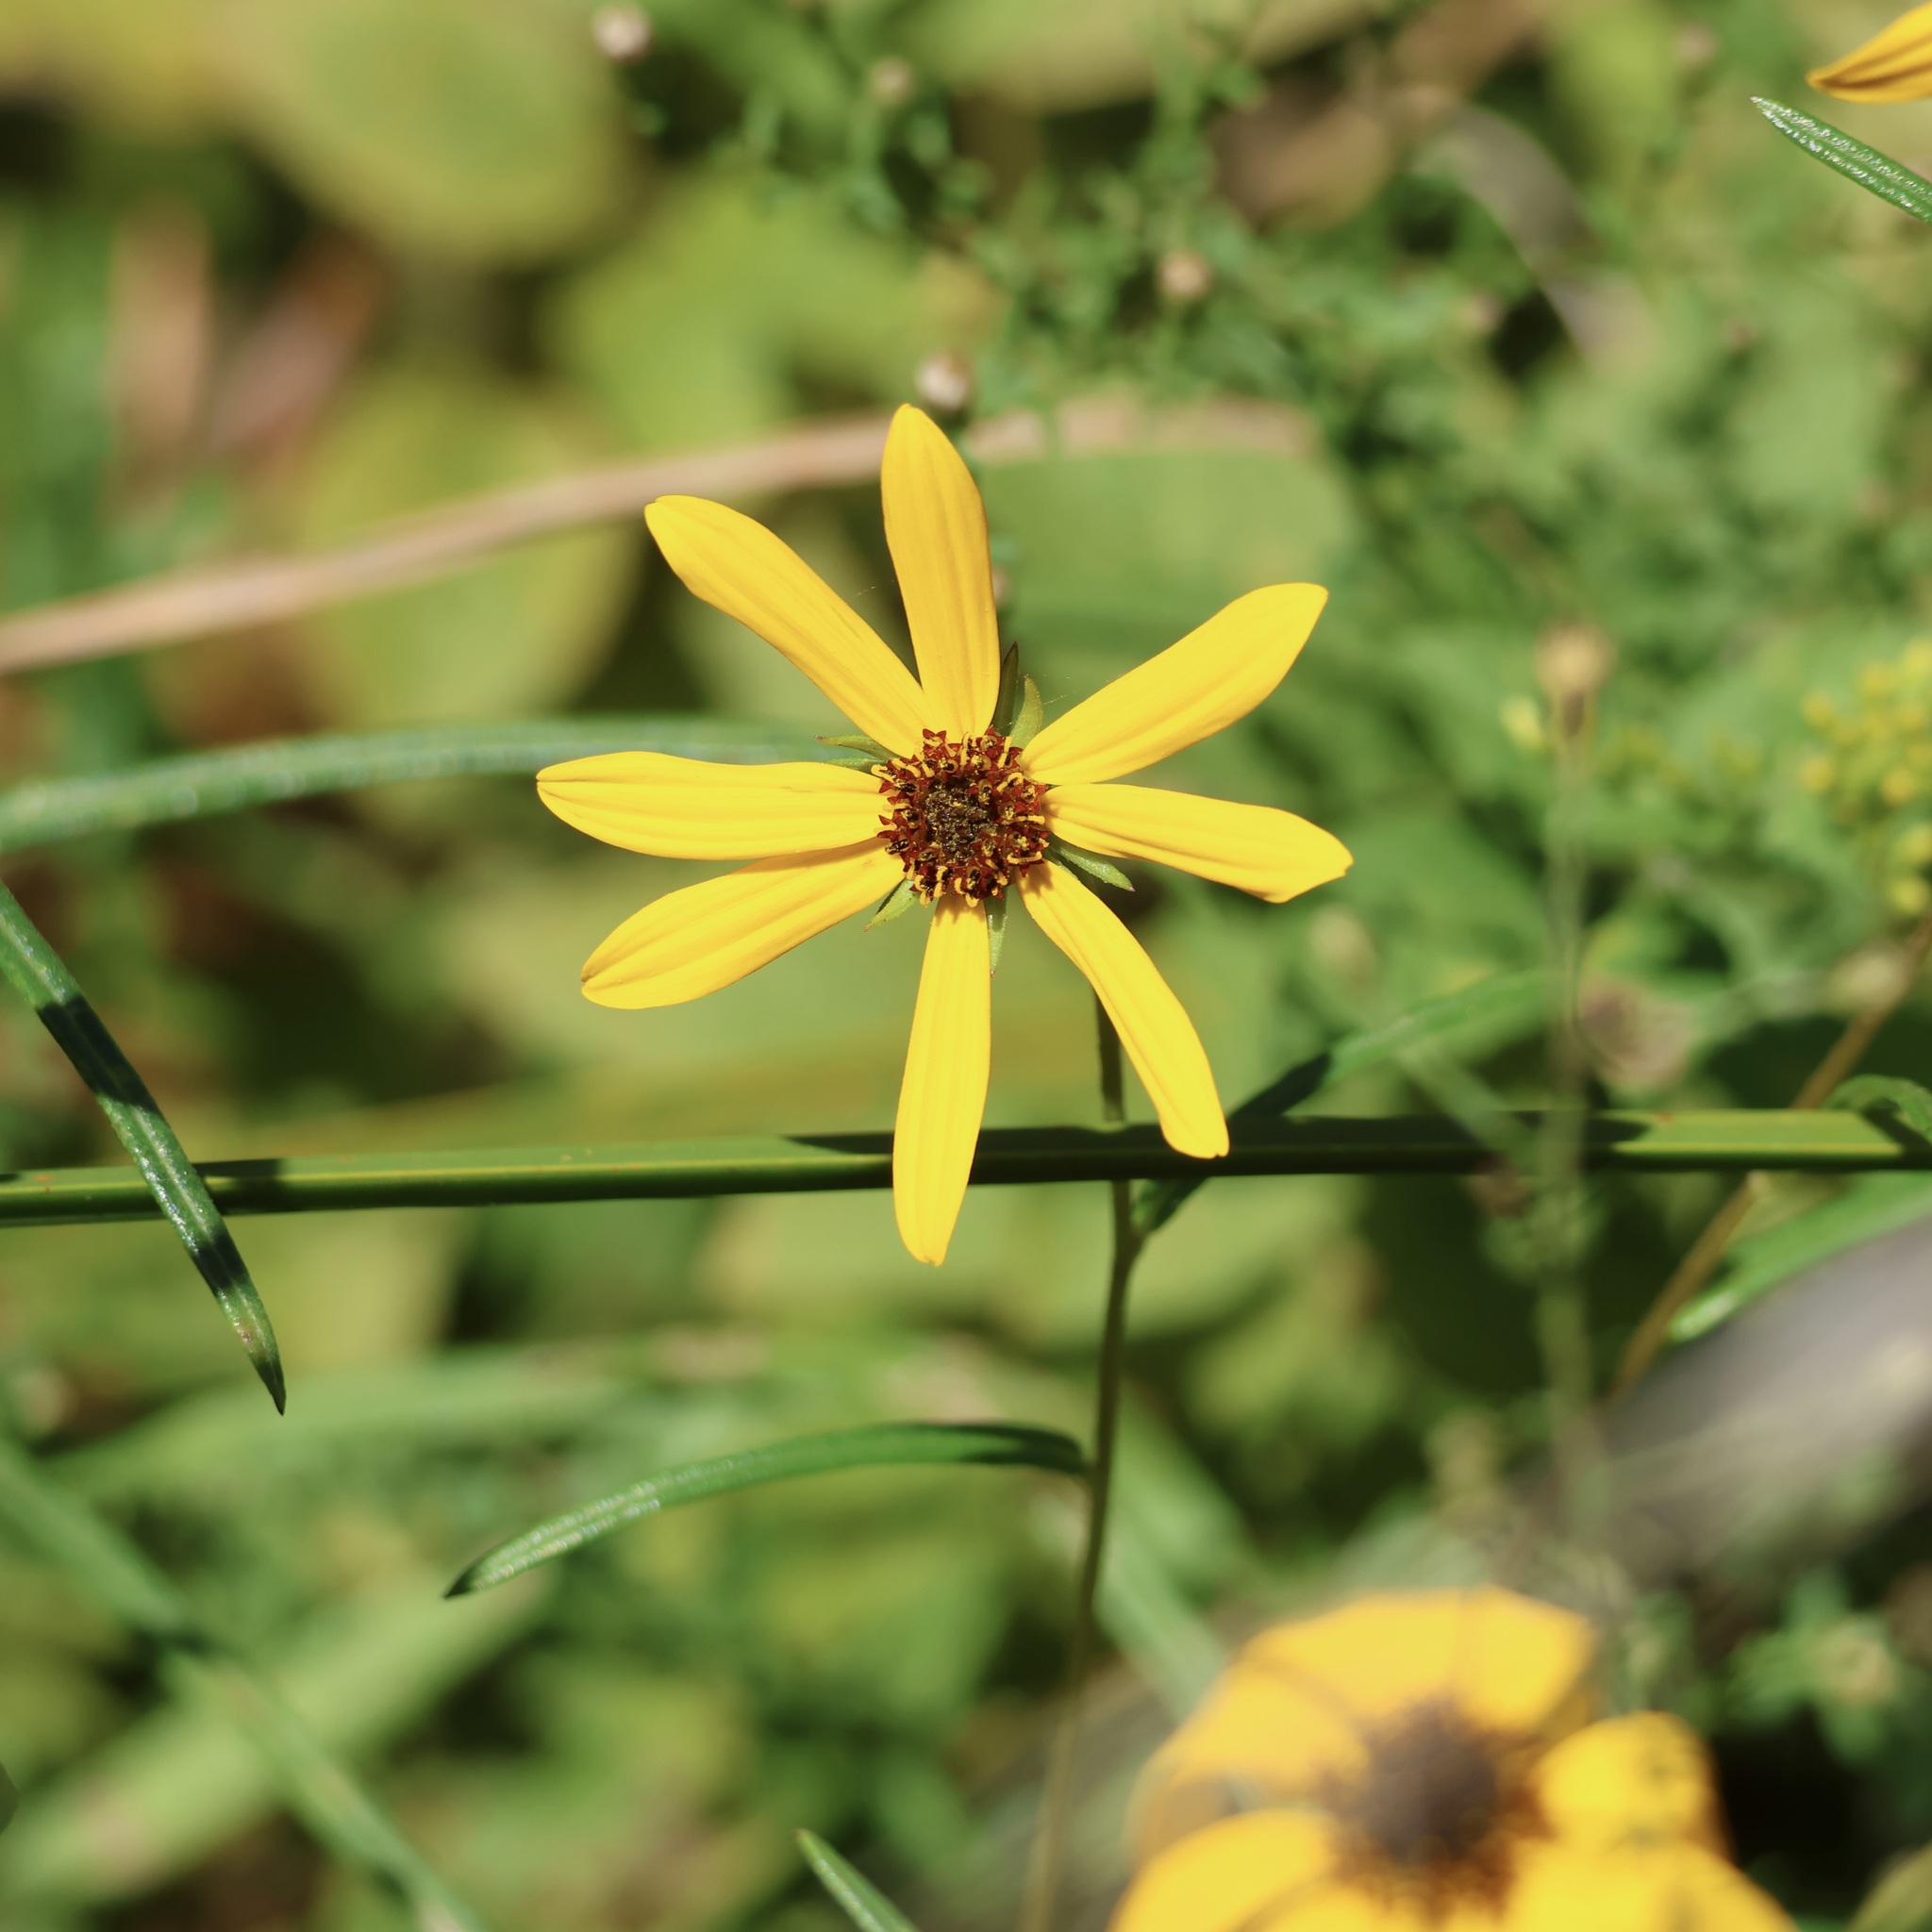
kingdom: Plantae
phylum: Tracheophyta
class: Magnoliopsida
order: Asterales
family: Asteraceae
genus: Helianthus
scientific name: Helianthus angustifolius
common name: Swamp sunflower
